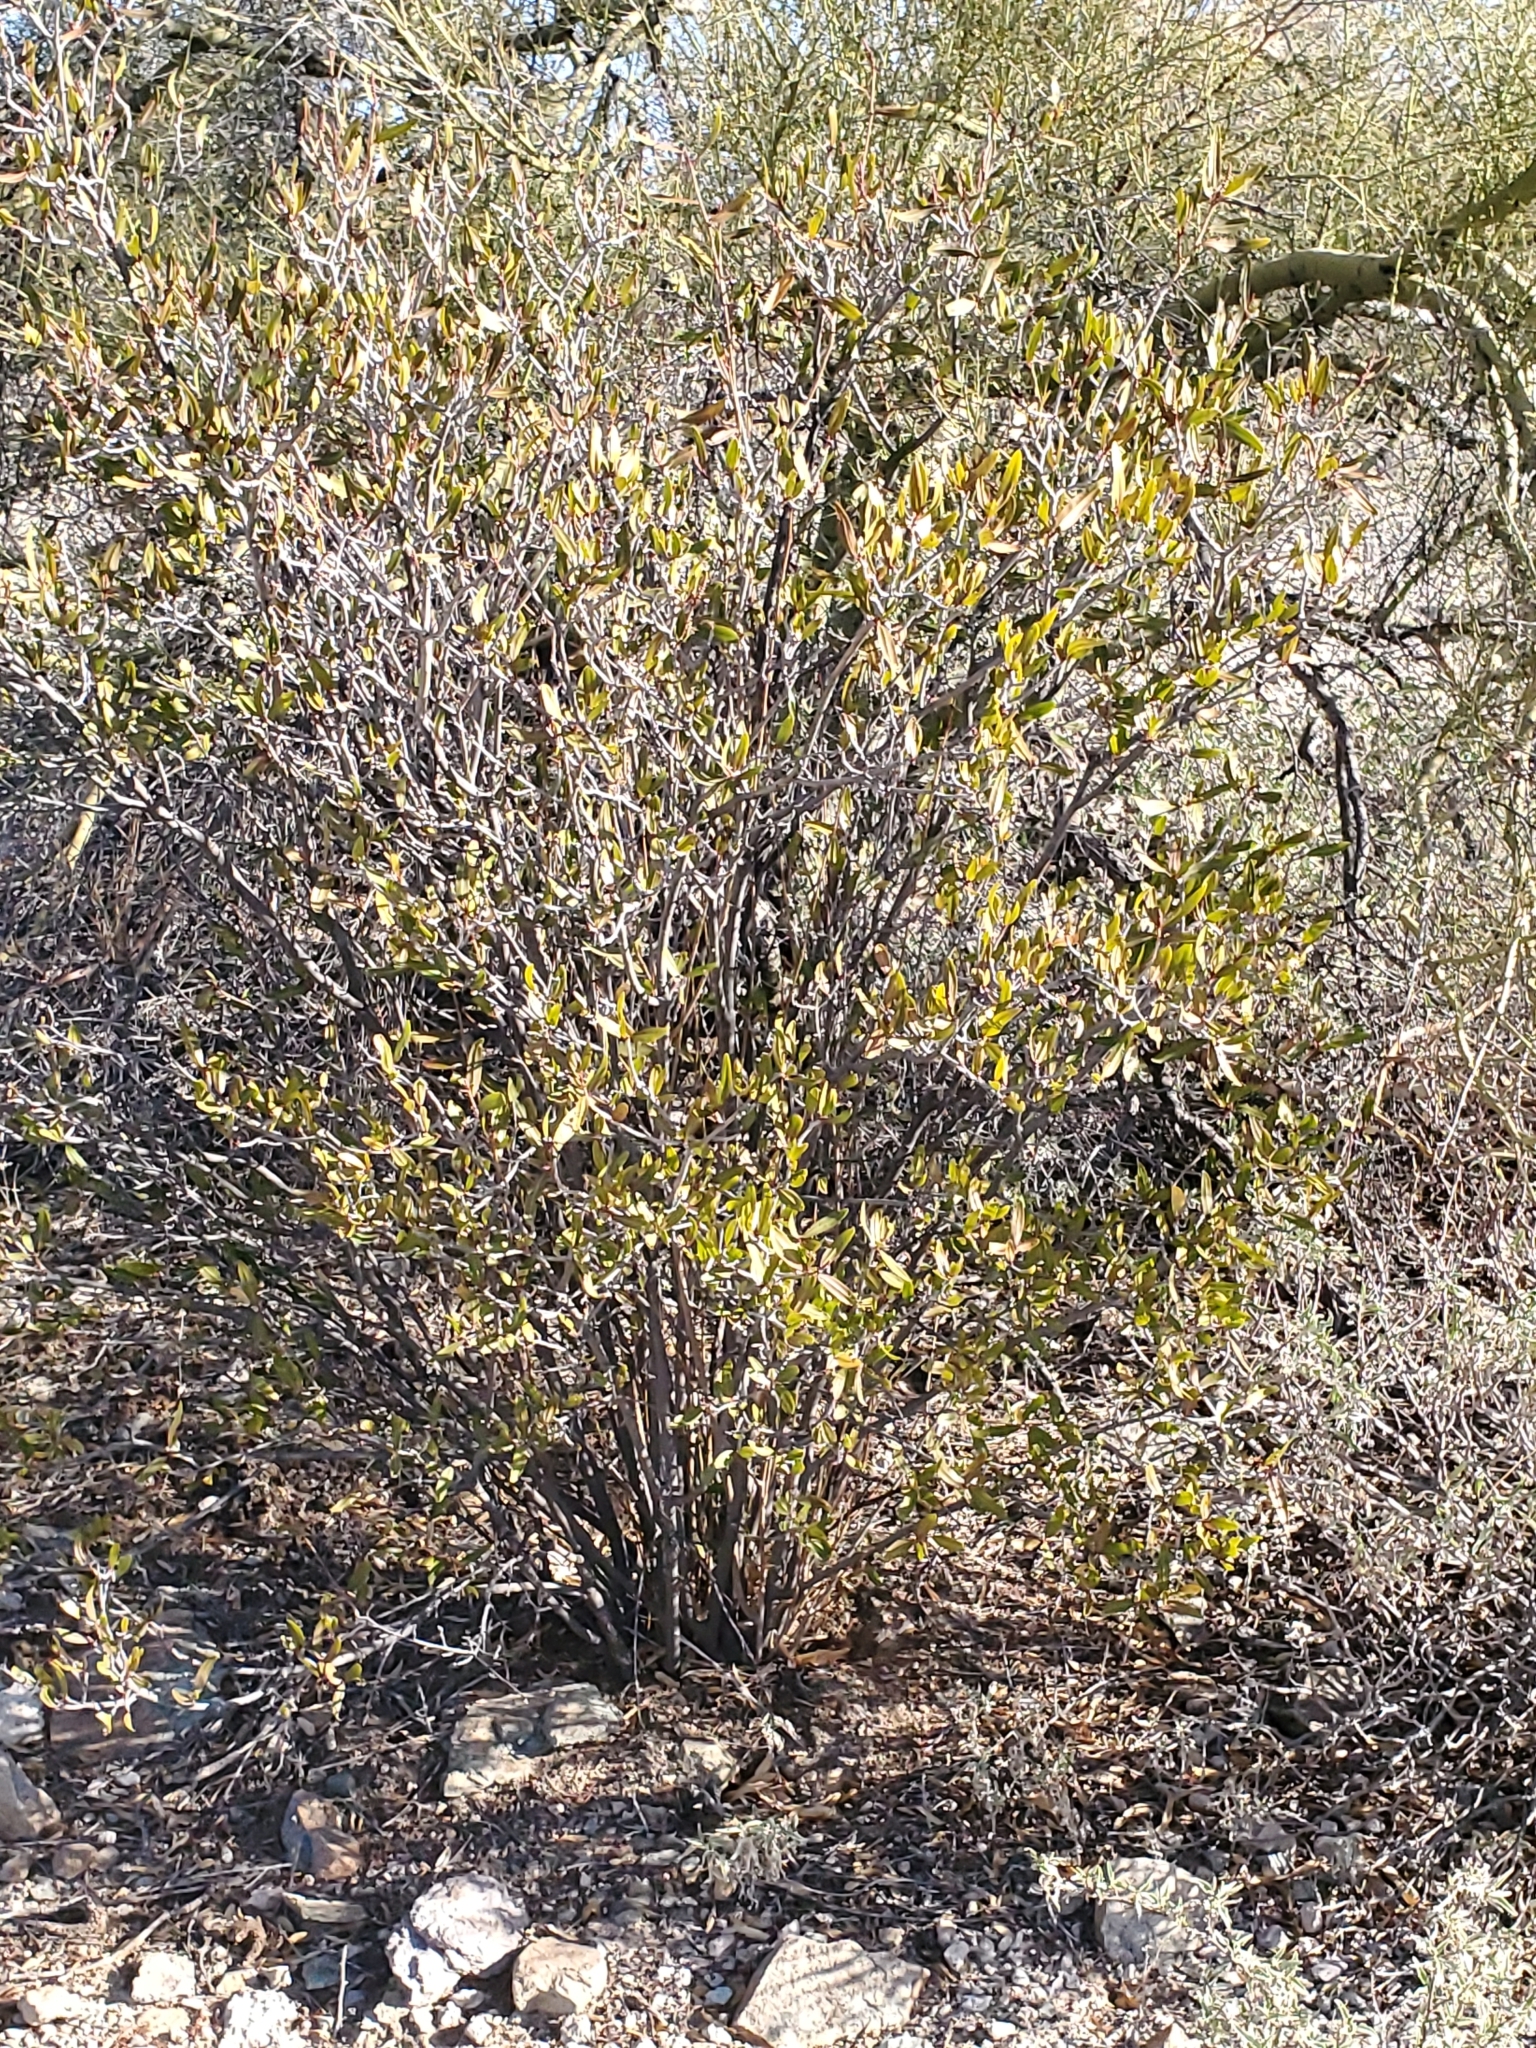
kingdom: Plantae
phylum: Tracheophyta
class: Magnoliopsida
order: Malpighiales
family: Euphorbiaceae
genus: Pleradenophora
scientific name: Pleradenophora bilocularis
